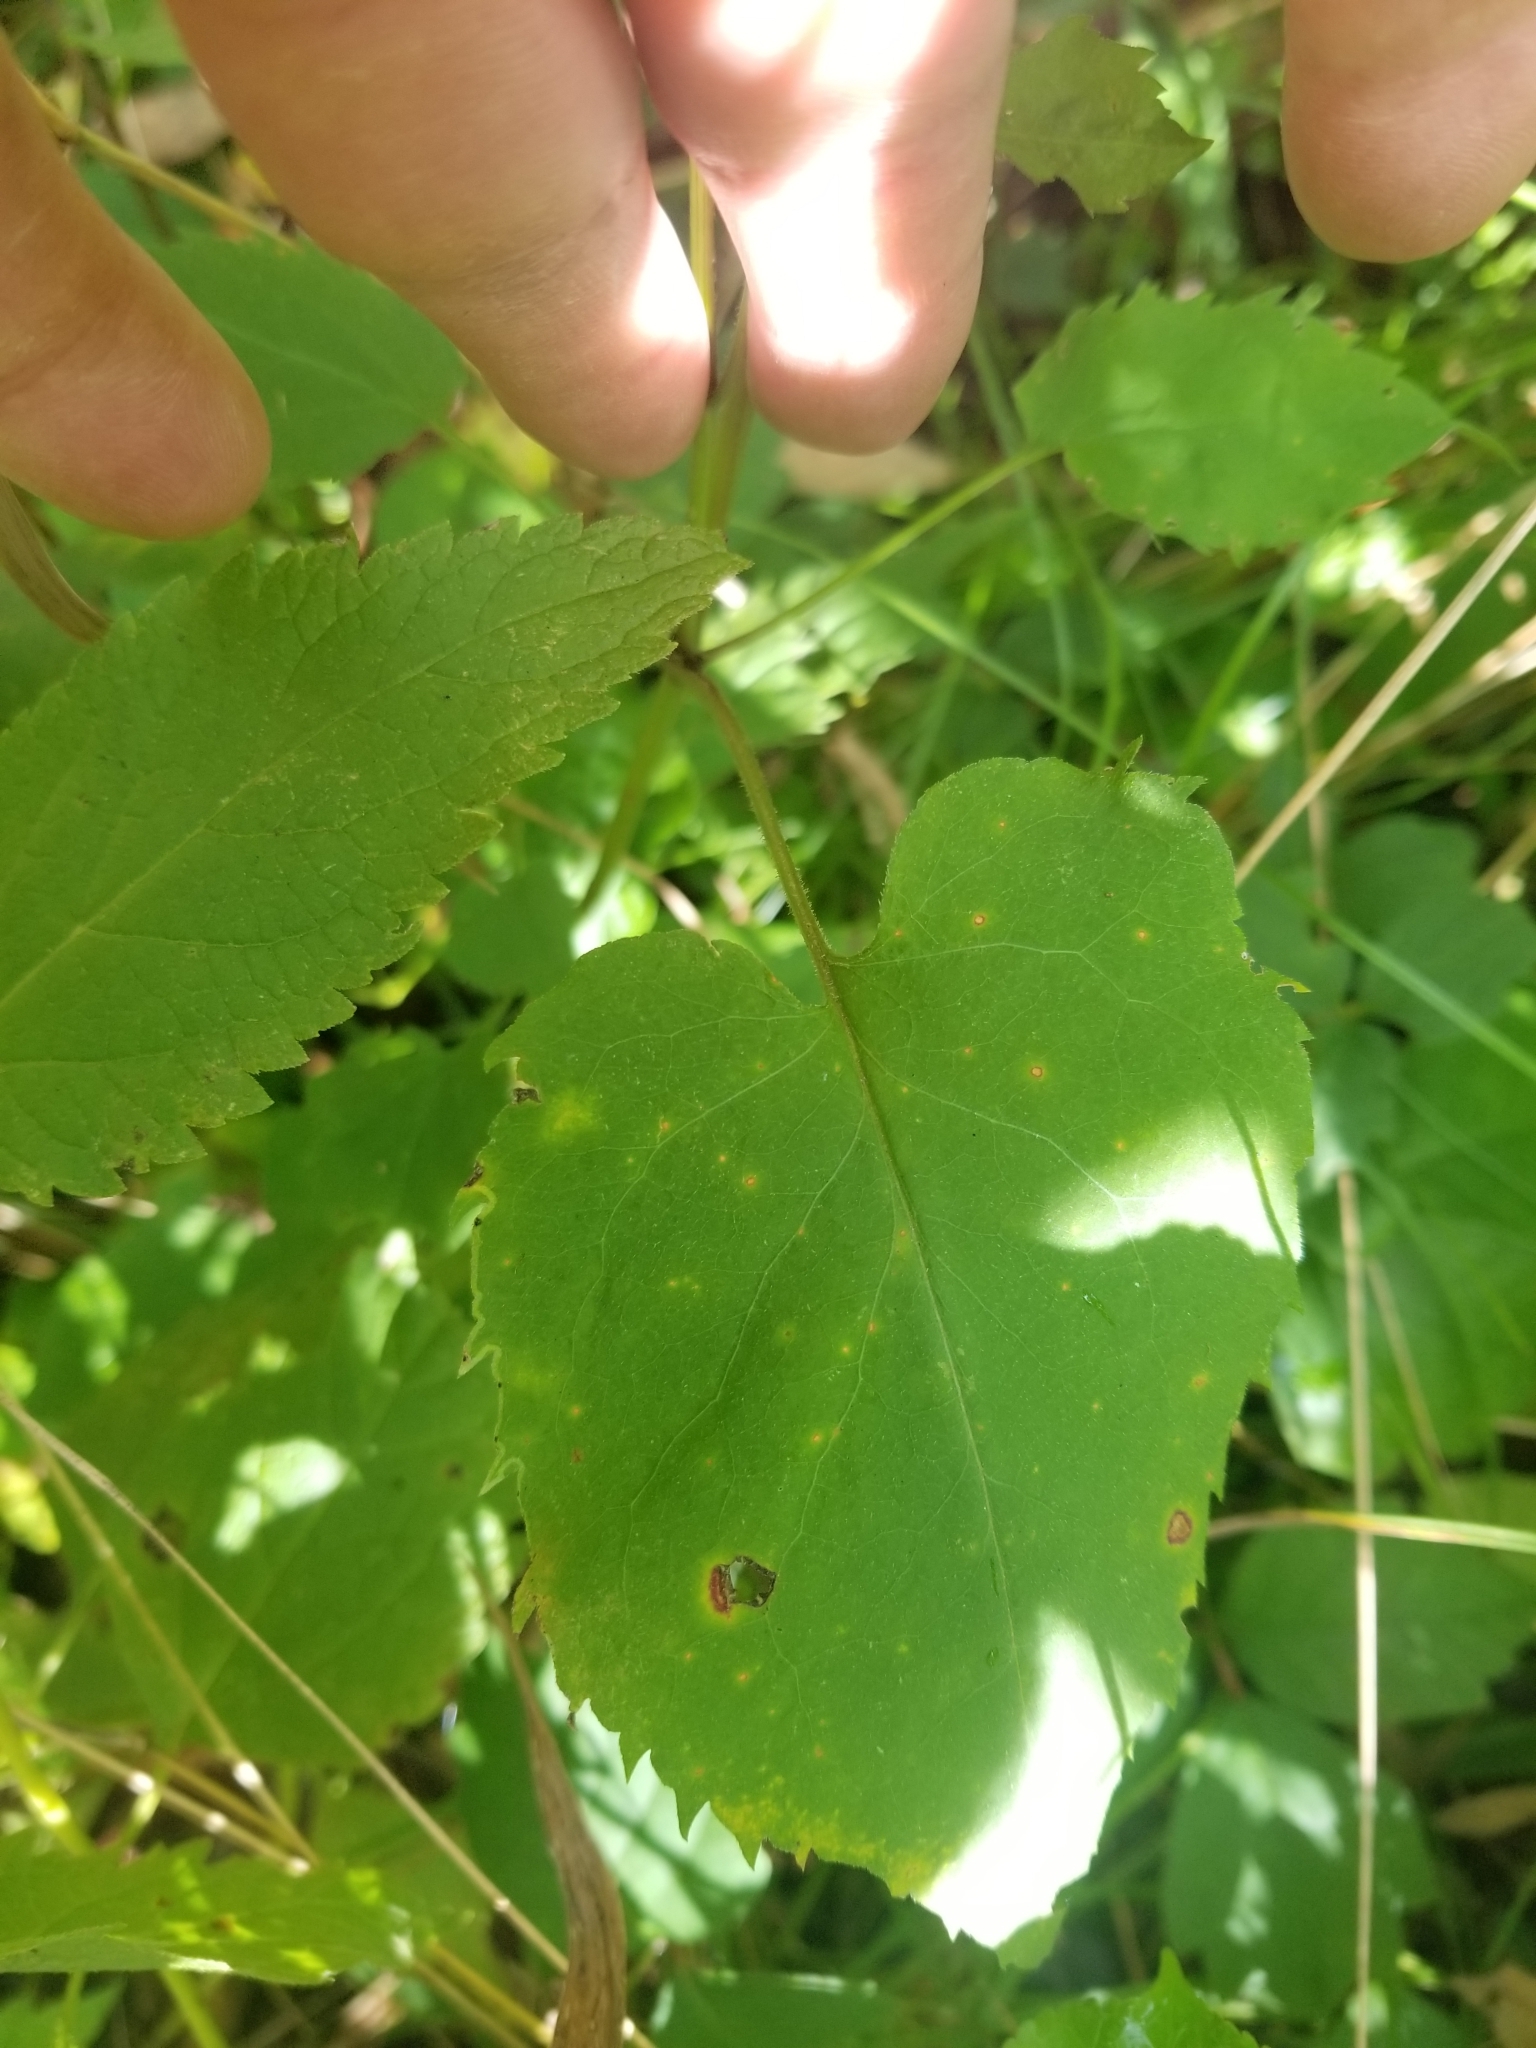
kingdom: Plantae
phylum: Tracheophyta
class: Magnoliopsida
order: Asterales
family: Asteraceae
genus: Symphyotrichum
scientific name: Symphyotrichum cordifolium
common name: Beeweed
